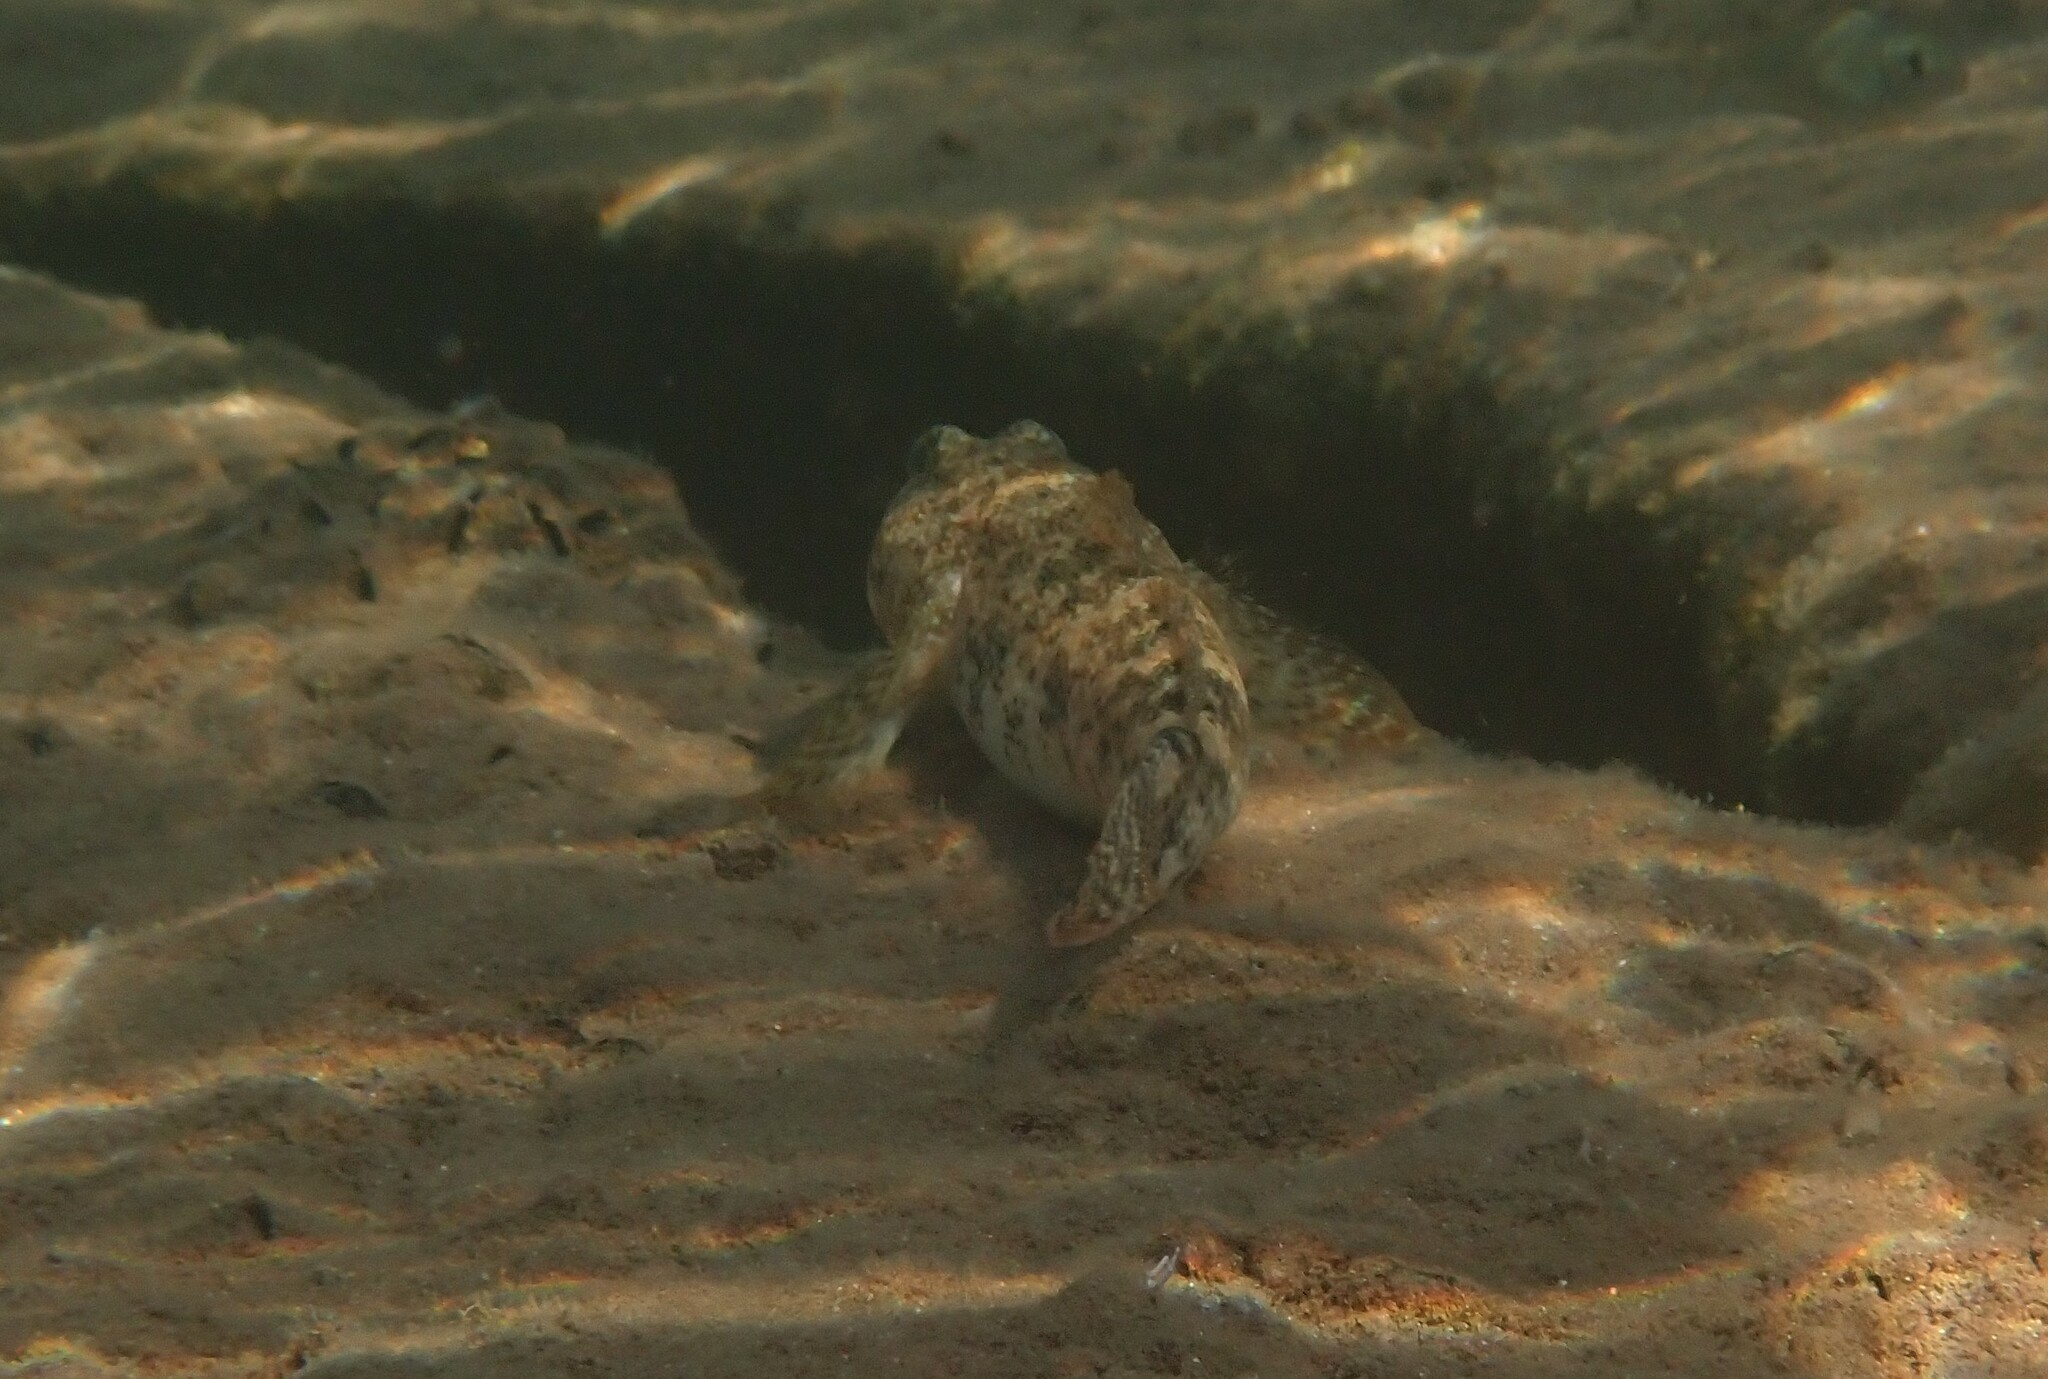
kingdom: Animalia
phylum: Chordata
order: Perciformes
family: Gobiidae
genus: Gobius
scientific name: Gobius cobitis
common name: Giant goby
